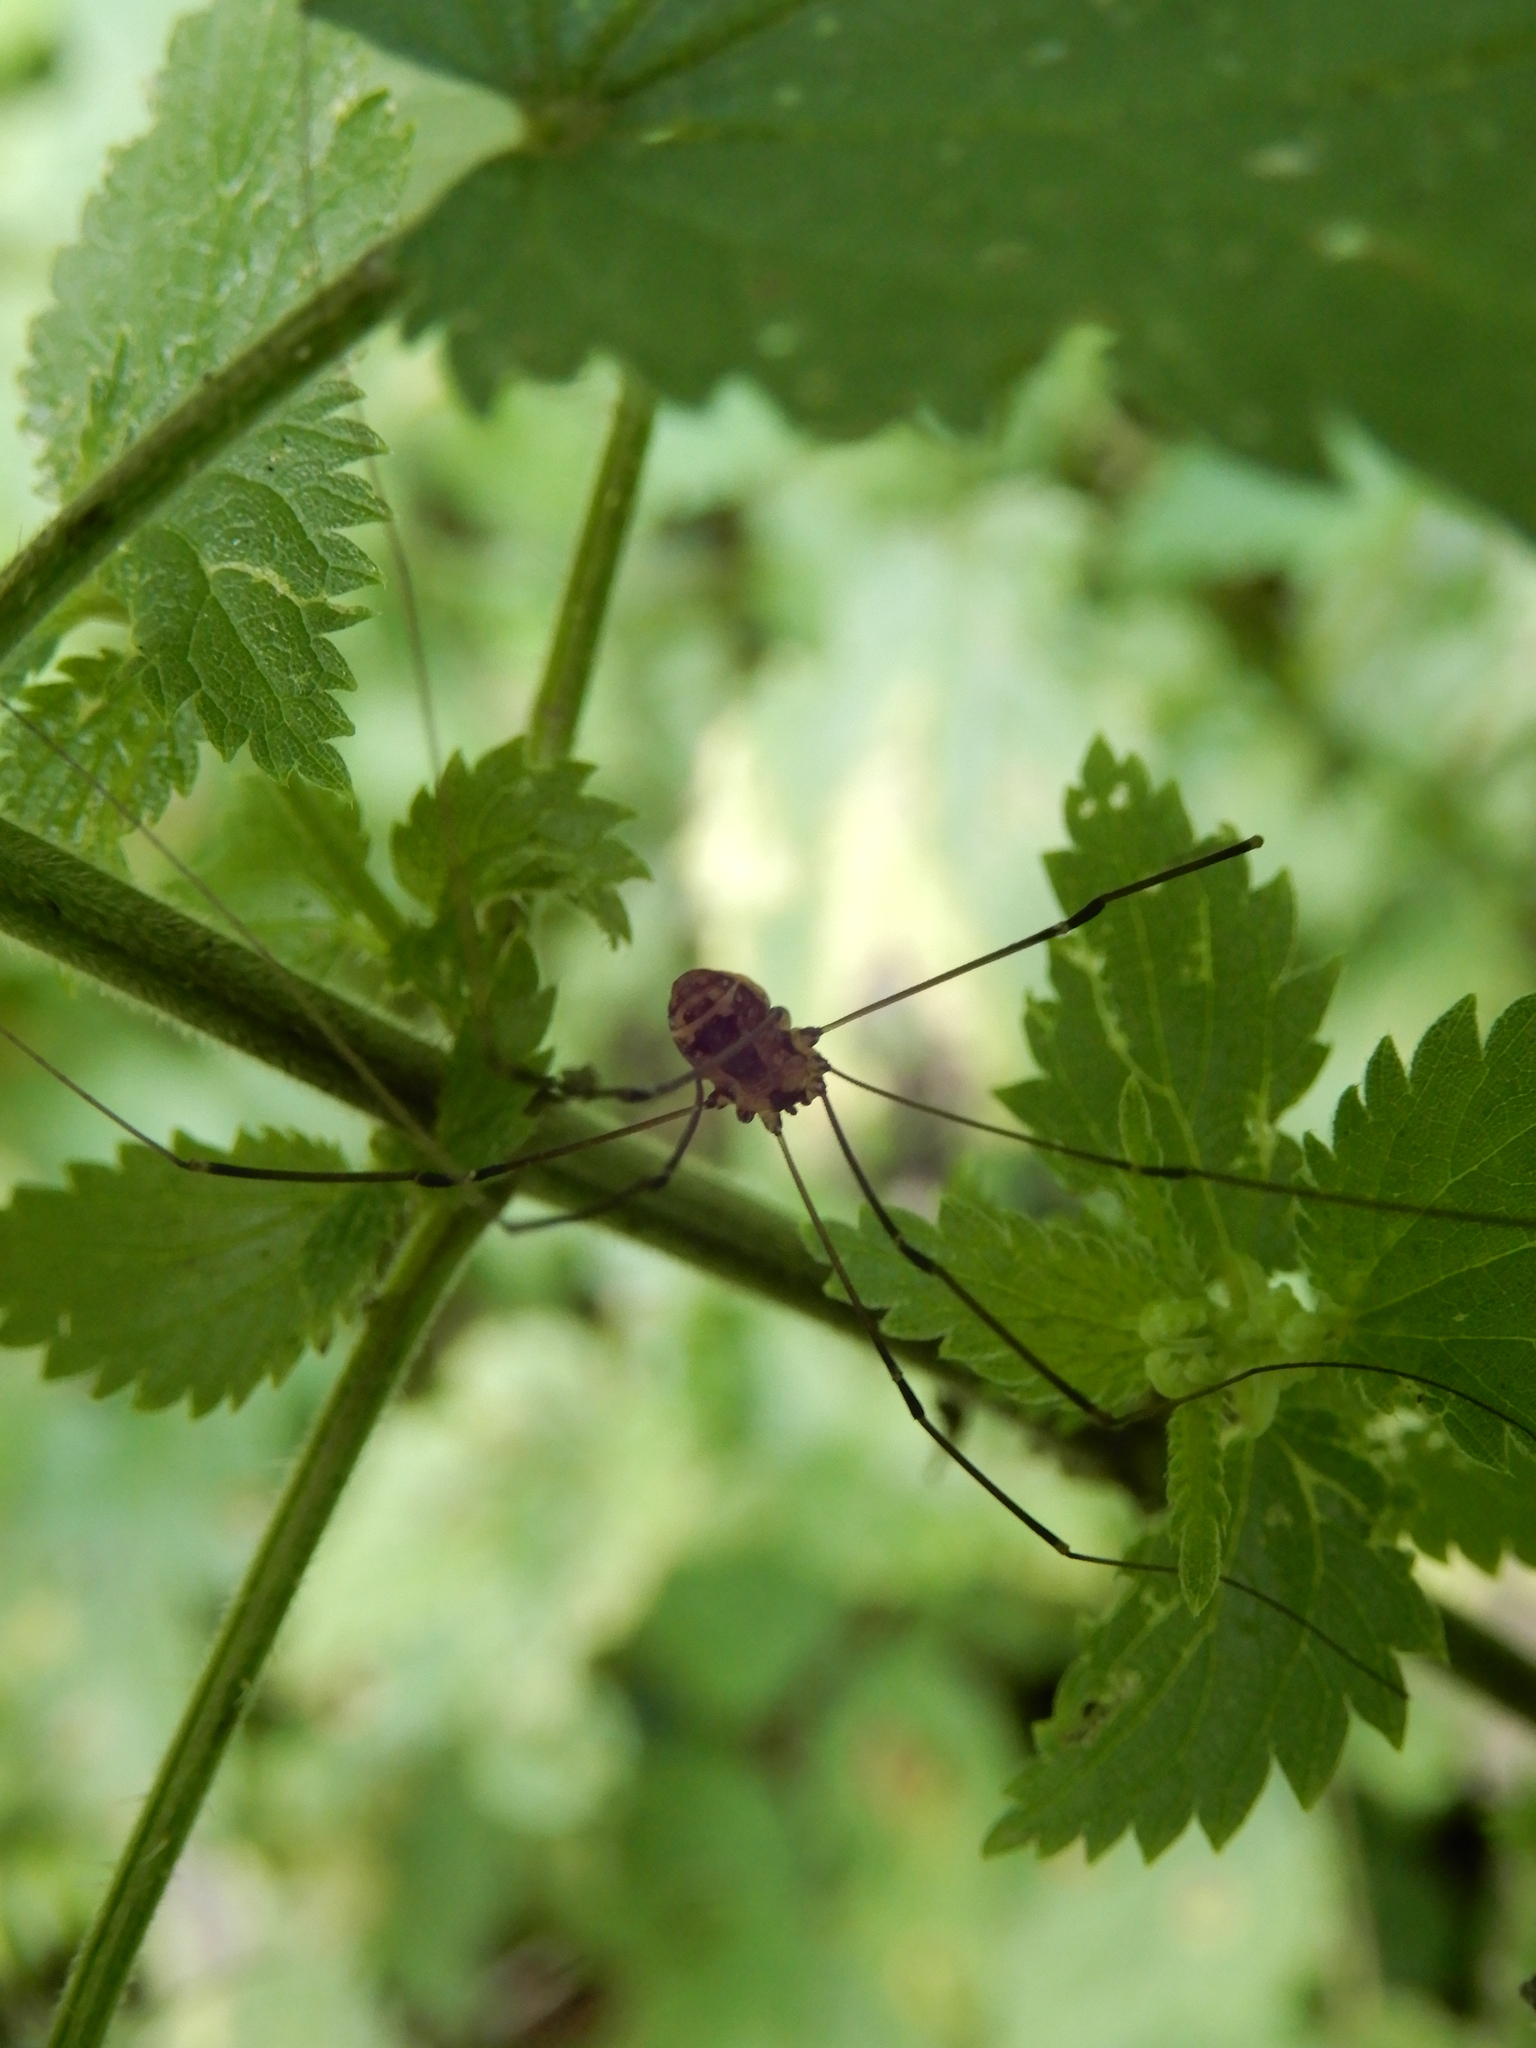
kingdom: Animalia
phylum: Arthropoda
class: Arachnida
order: Opiliones
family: Sclerosomatidae
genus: Leiobunum
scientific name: Leiobunum rotundum
